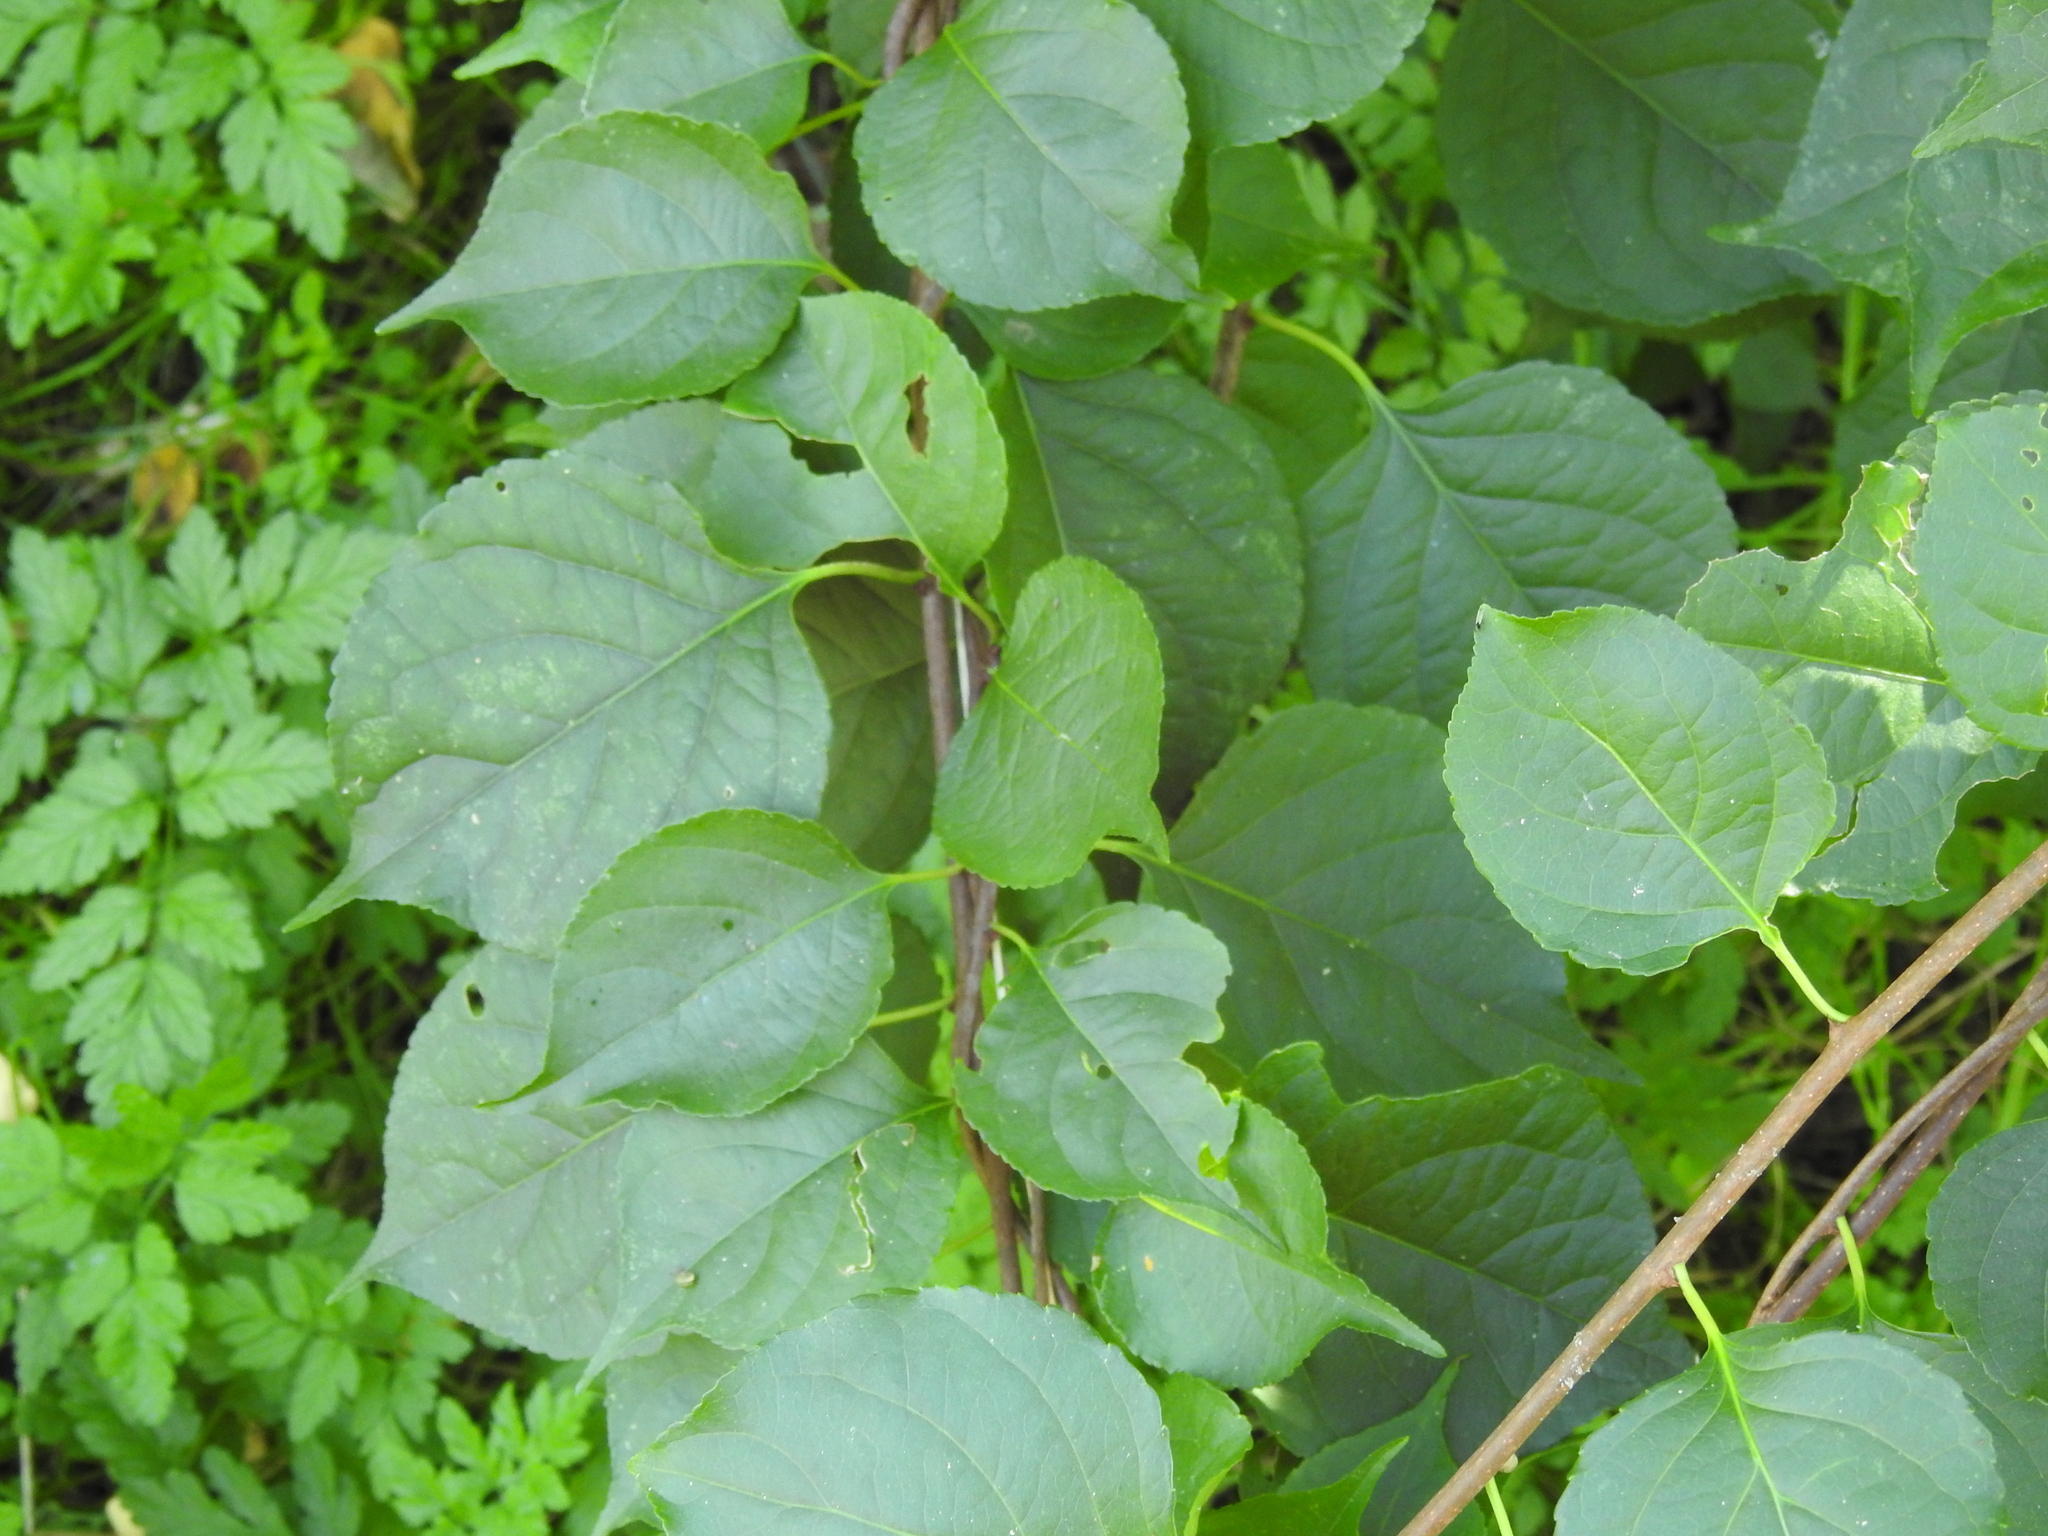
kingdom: Plantae
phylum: Tracheophyta
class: Magnoliopsida
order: Rosales
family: Rosaceae
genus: Prunus
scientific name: Prunus mahaleb
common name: Mahaleb cherry
